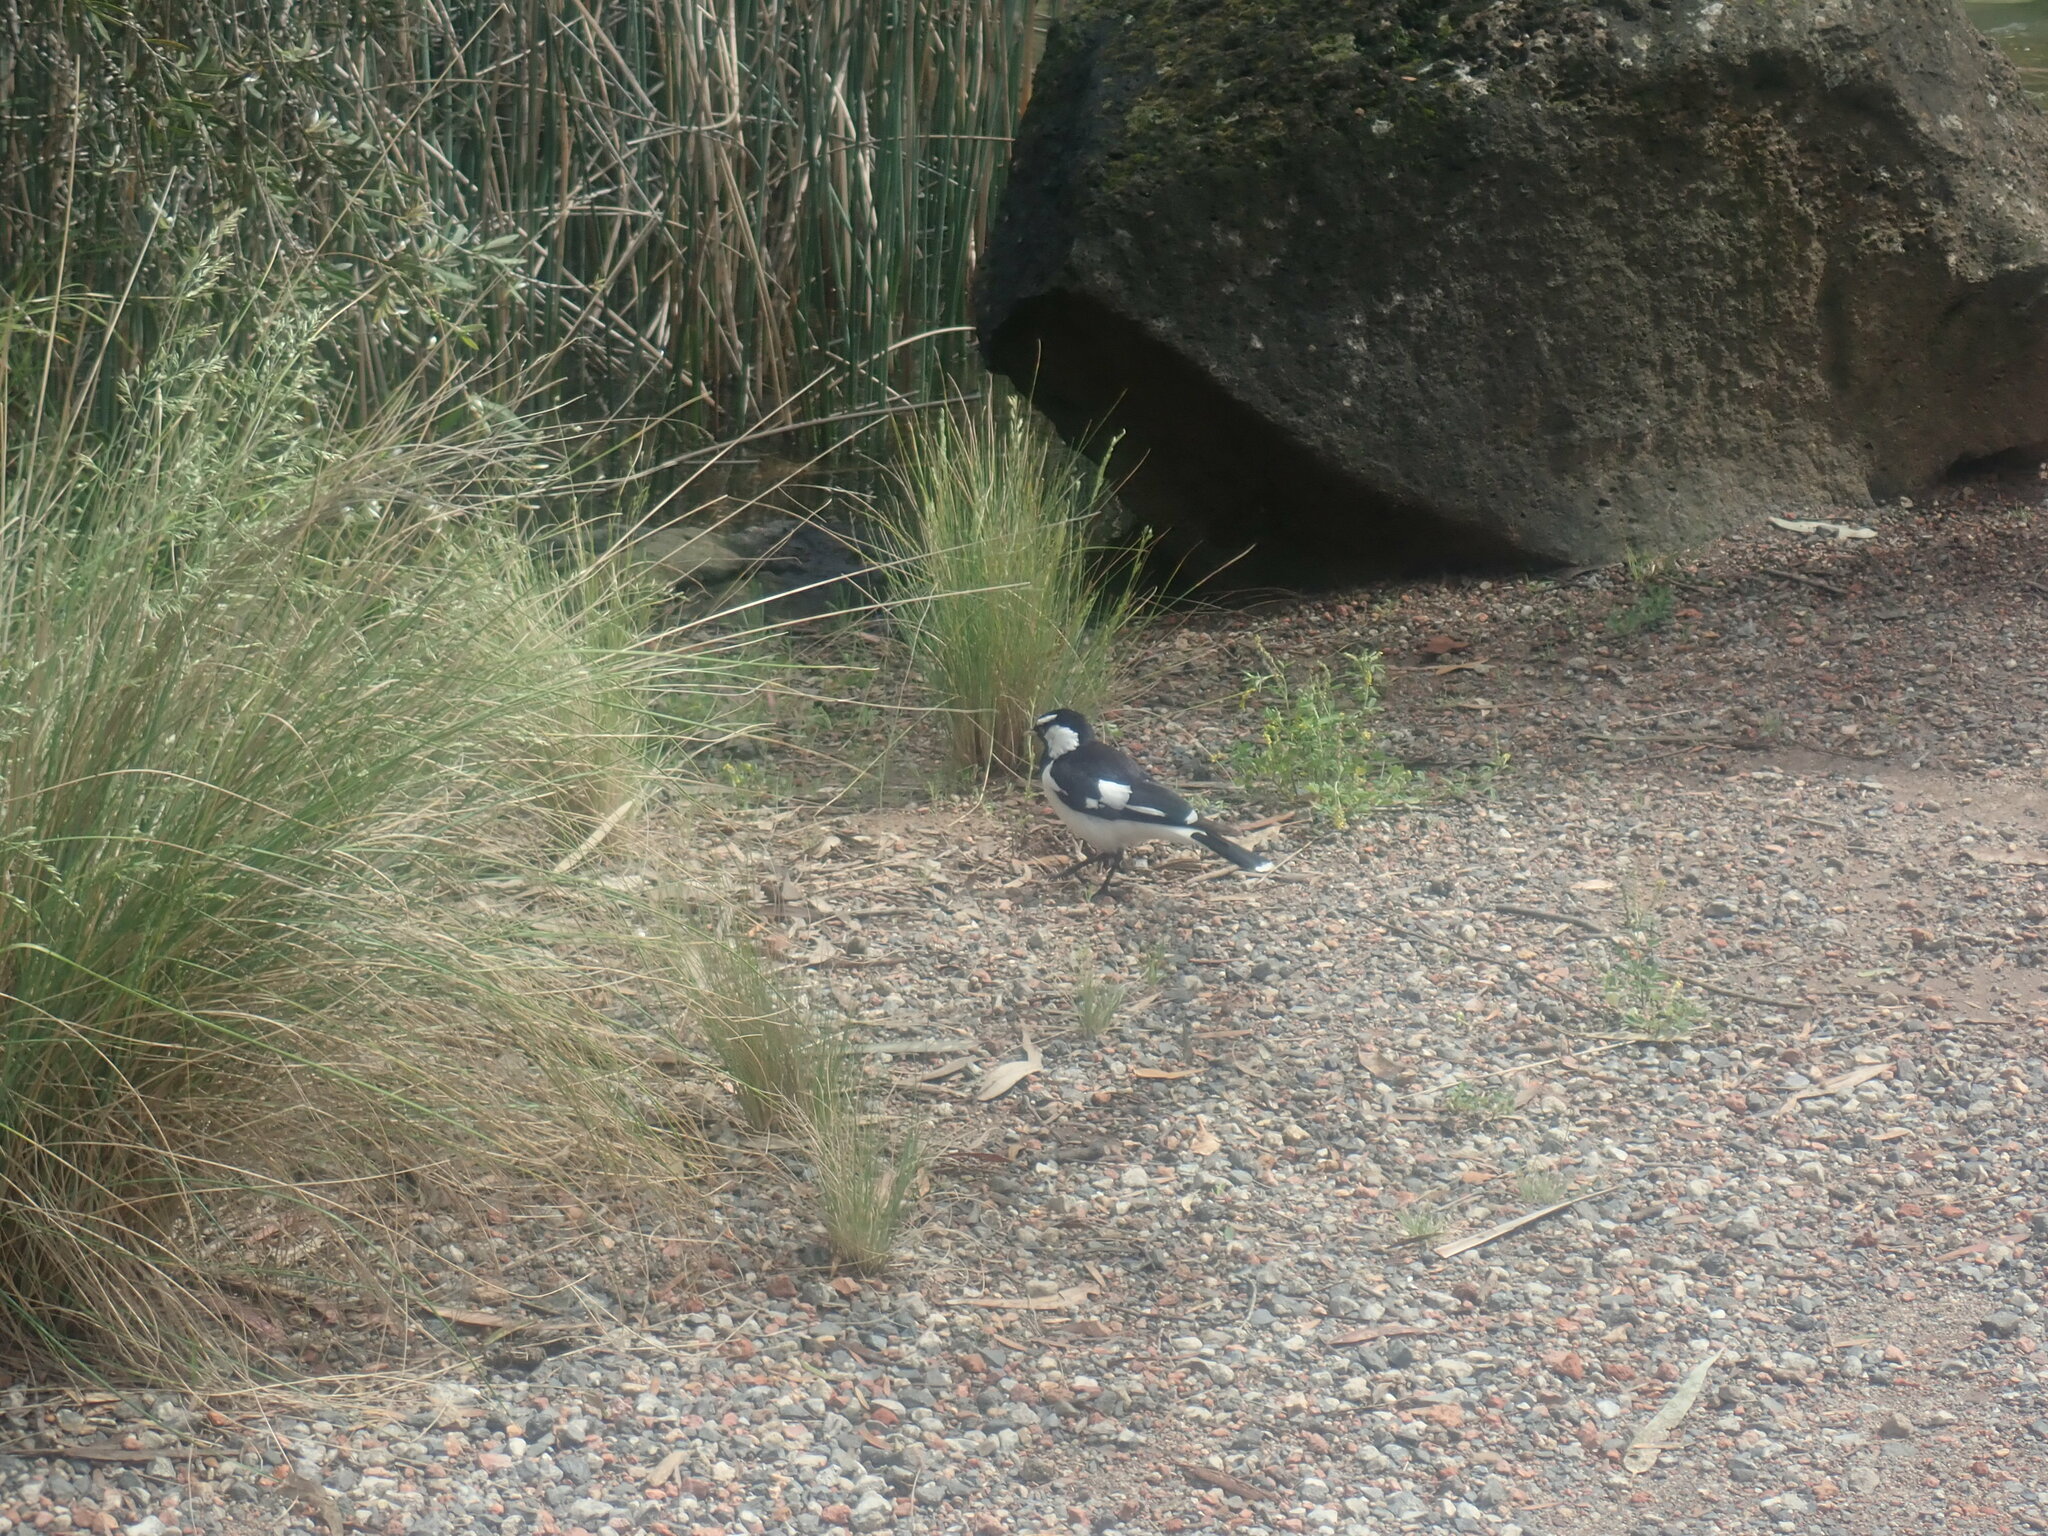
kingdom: Animalia
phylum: Chordata
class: Aves
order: Passeriformes
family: Monarchidae
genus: Grallina
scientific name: Grallina cyanoleuca
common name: Magpie-lark
